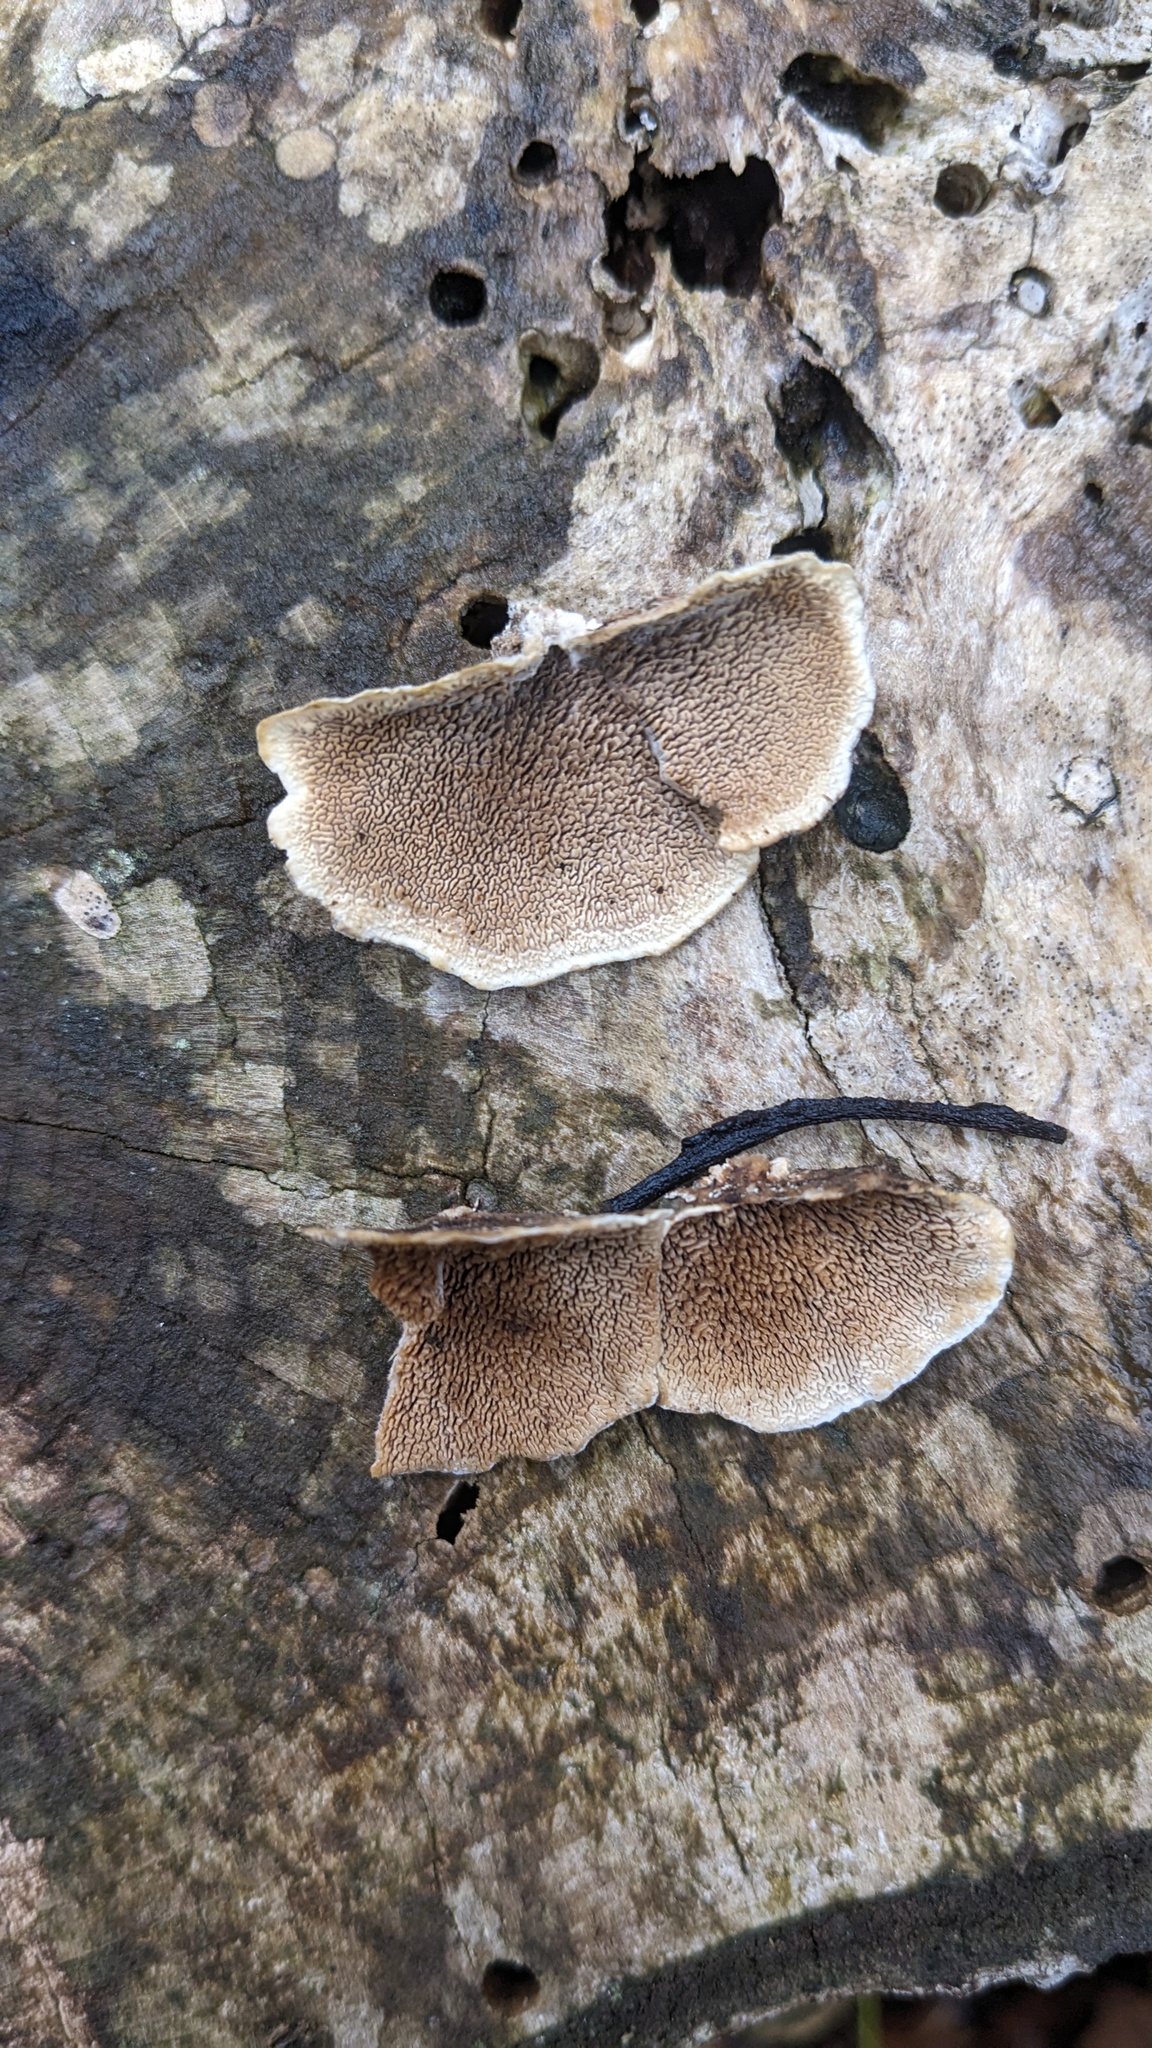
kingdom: Fungi
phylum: Basidiomycota
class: Agaricomycetes
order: Polyporales
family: Cerrenaceae
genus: Cerrena
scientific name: Cerrena unicolor
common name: Mossy maze polypore
